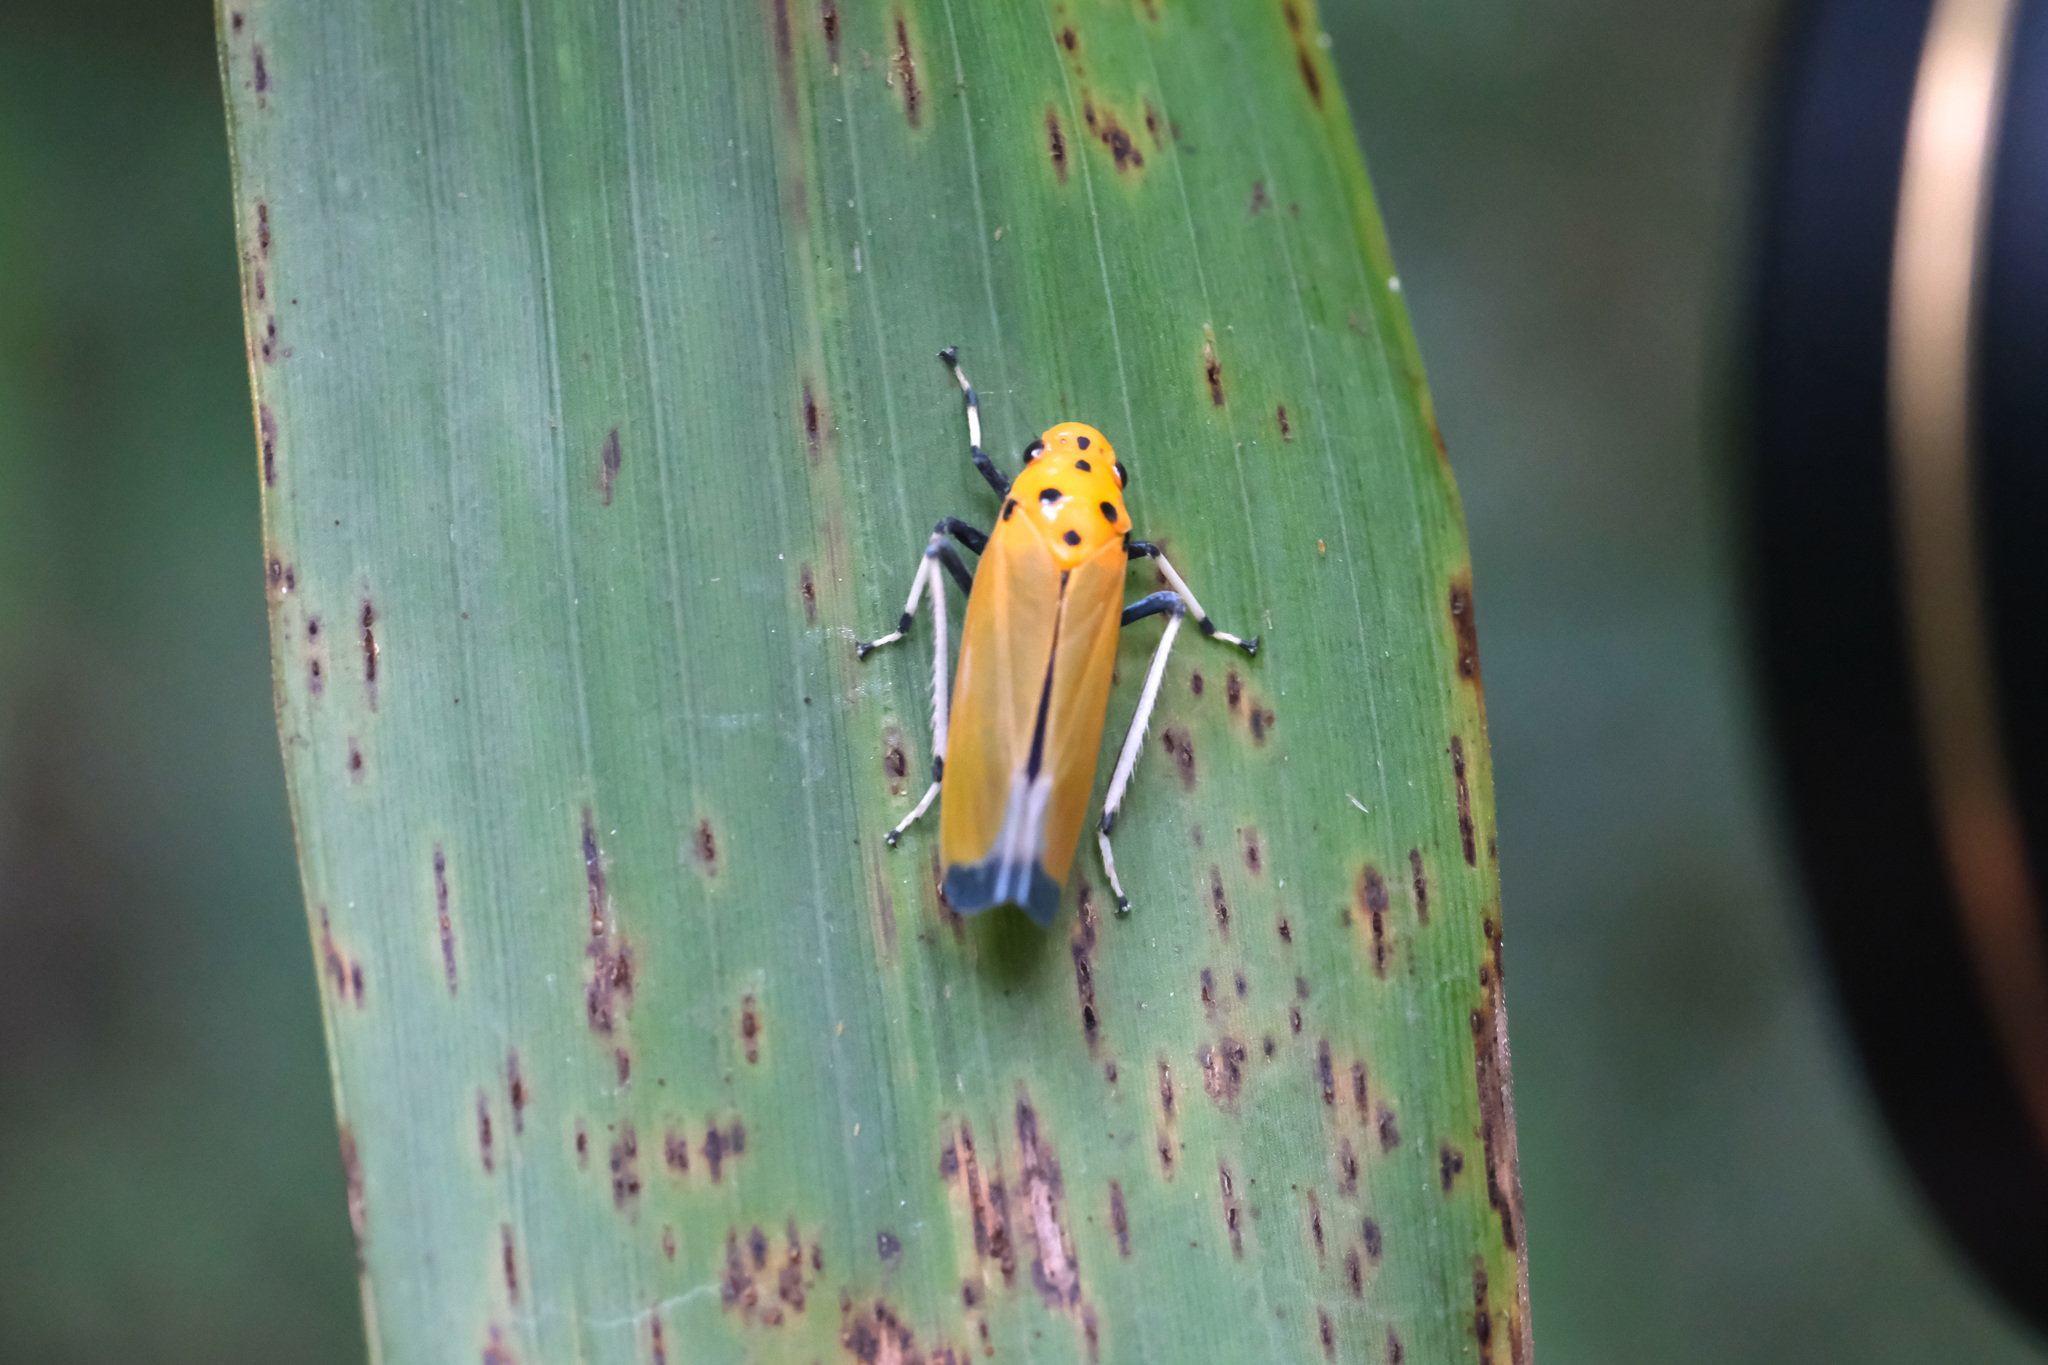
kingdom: Animalia
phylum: Arthropoda
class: Insecta
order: Hemiptera
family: Cicadellidae
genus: Bothrogonia
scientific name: Bothrogonia ferruginea
